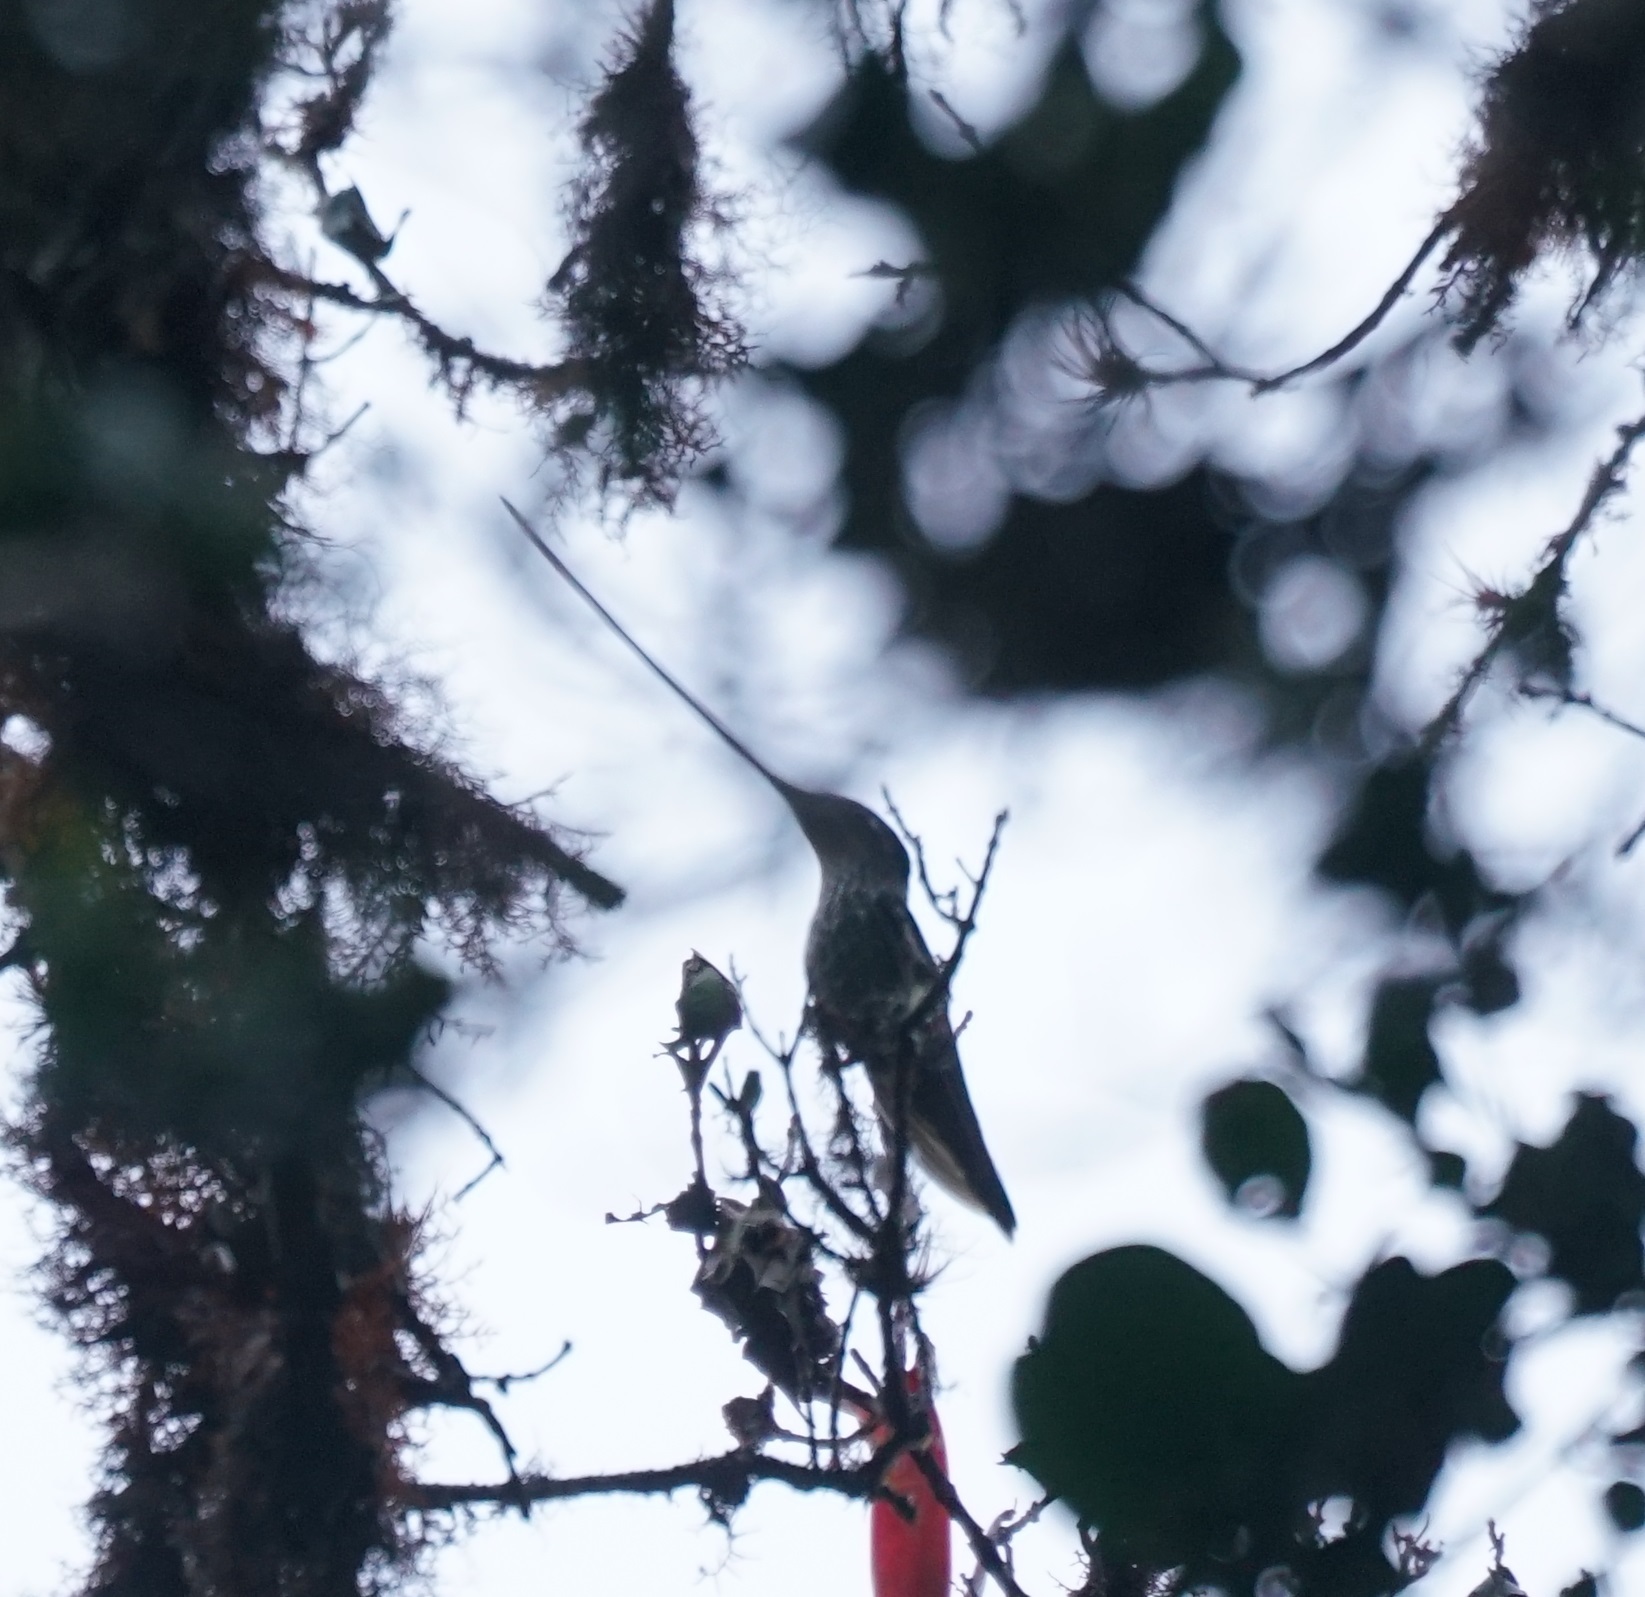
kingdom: Animalia
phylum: Chordata
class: Aves
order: Apodiformes
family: Trochilidae
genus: Ensifera
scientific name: Ensifera ensifera
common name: Sword-billed hummingbird
